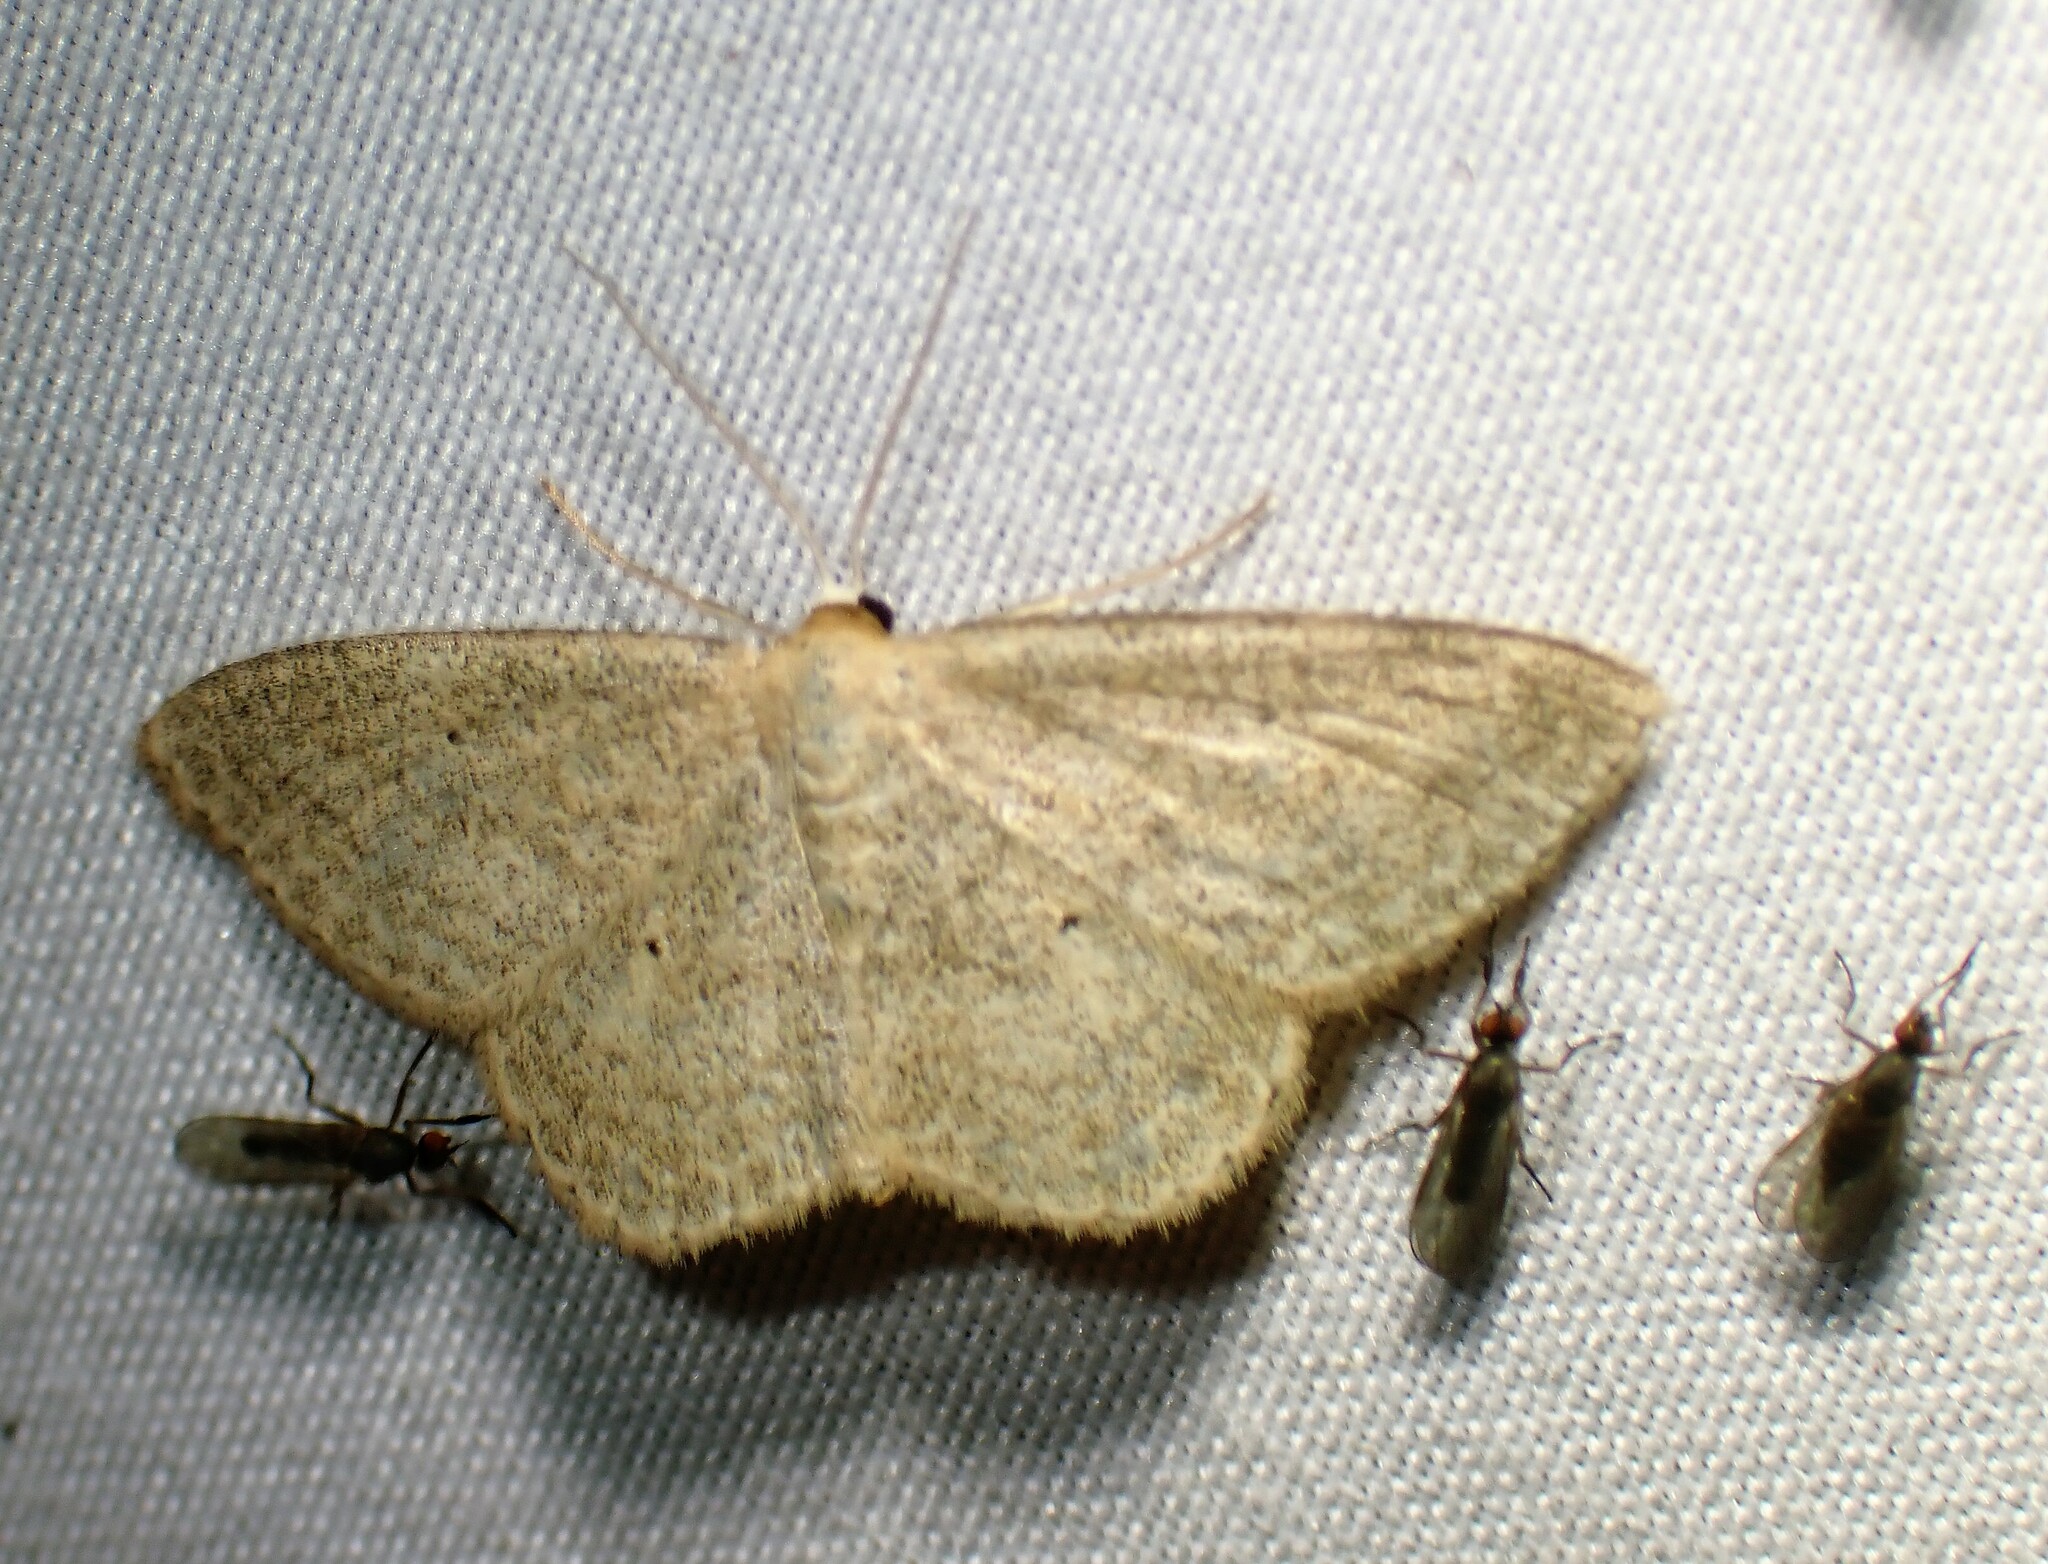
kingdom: Animalia
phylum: Arthropoda
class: Insecta
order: Lepidoptera
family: Geometridae
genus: Scopula
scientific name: Scopula inductata
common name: Soft-lined wave
